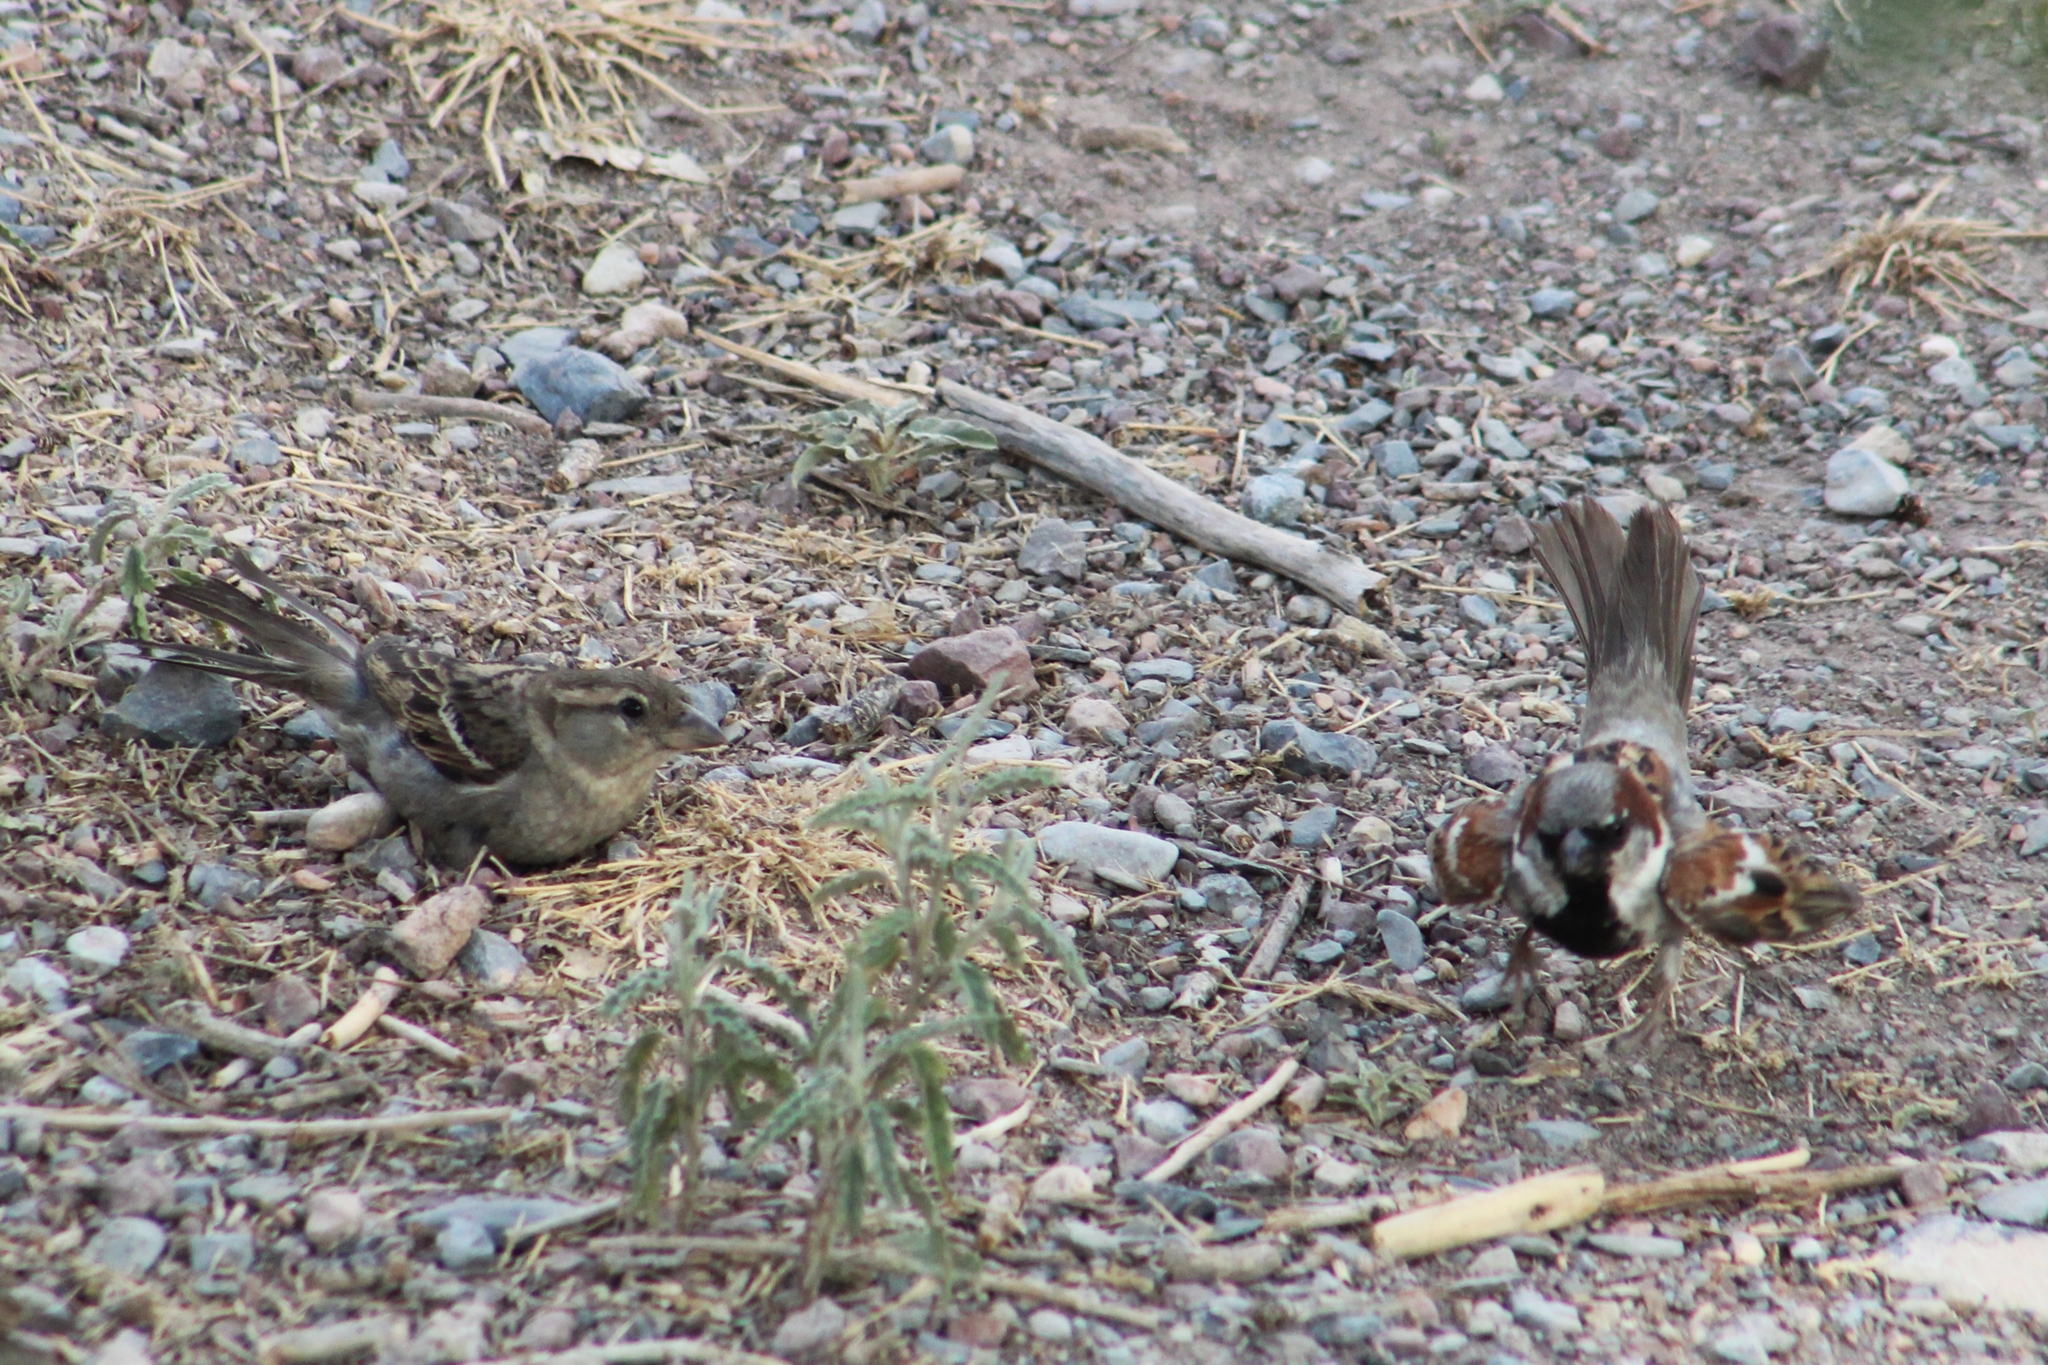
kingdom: Animalia
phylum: Chordata
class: Aves
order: Passeriformes
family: Passeridae
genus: Passer
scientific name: Passer domesticus
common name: House sparrow
